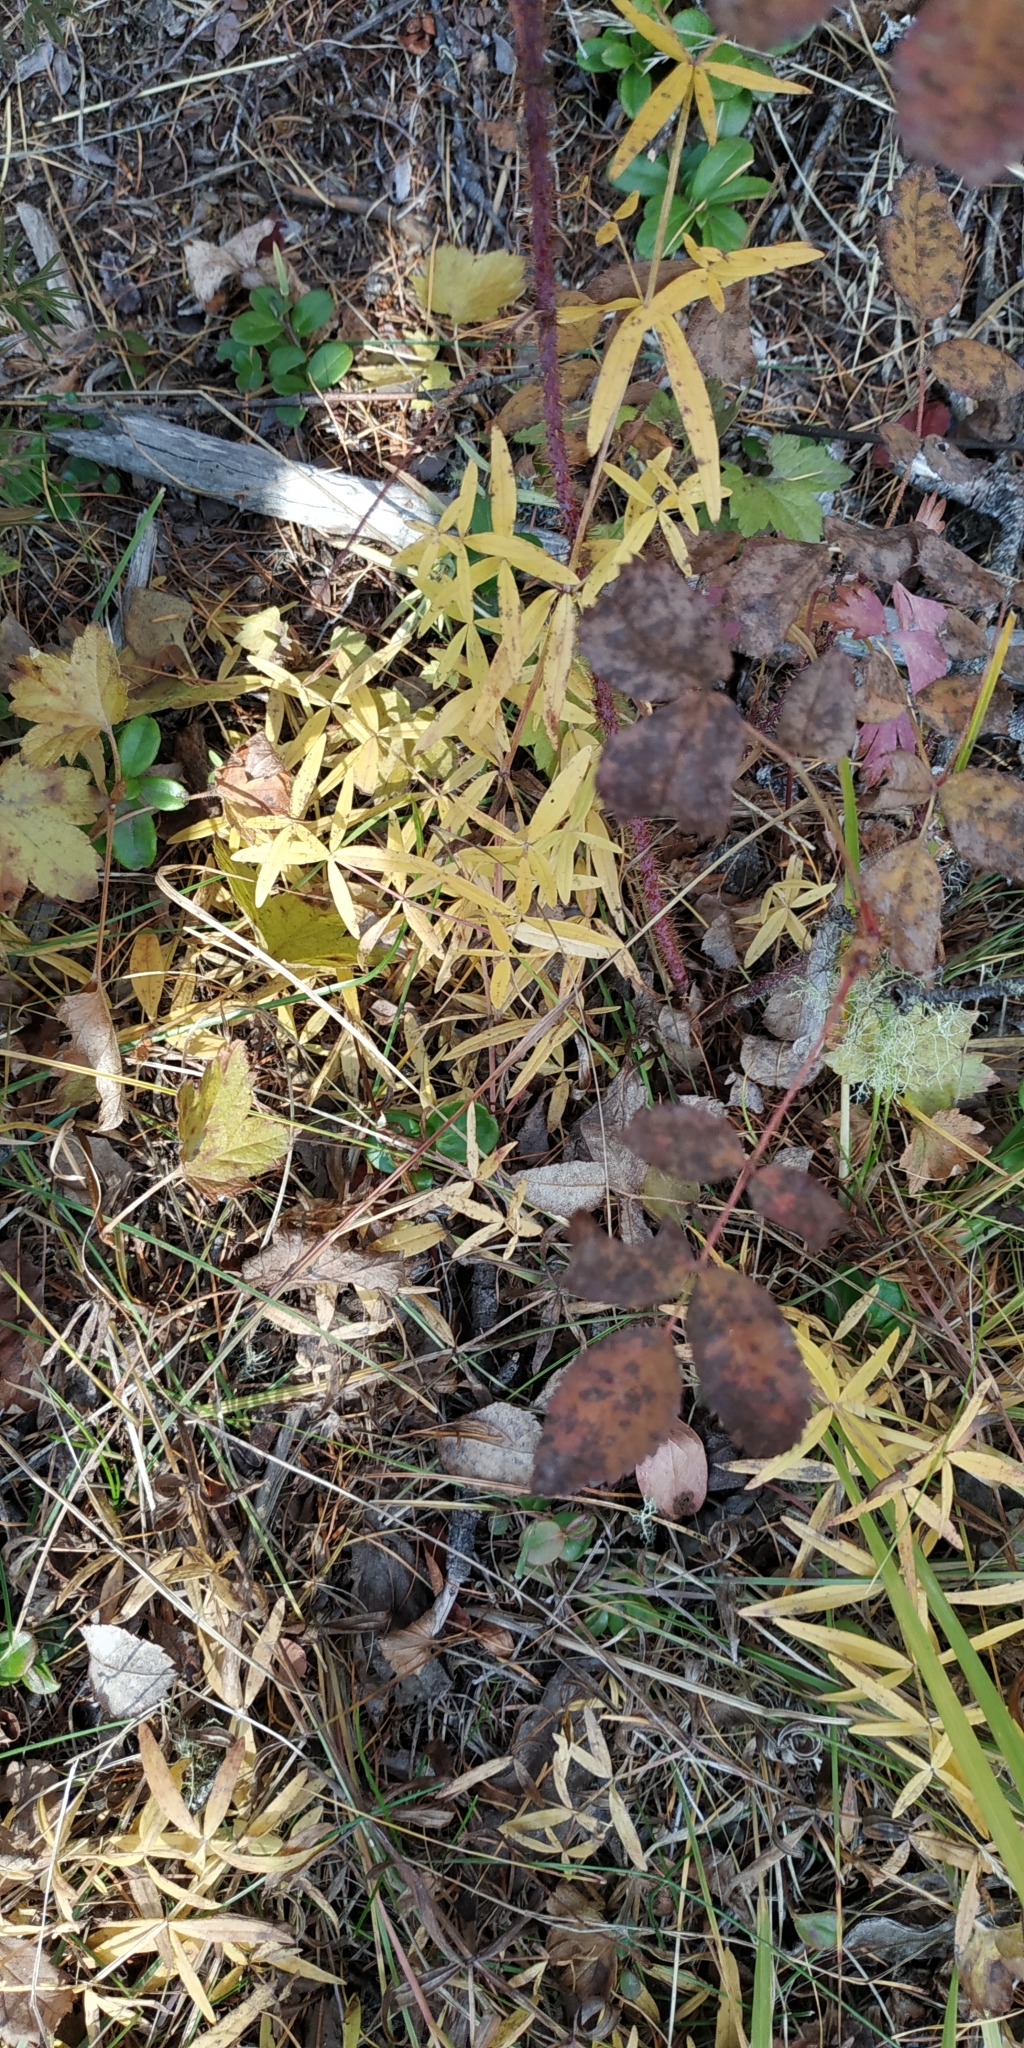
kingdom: Plantae
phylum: Tracheophyta
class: Magnoliopsida
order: Gentianales
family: Rubiaceae
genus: Galium
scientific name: Galium boreale
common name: Northern bedstraw
